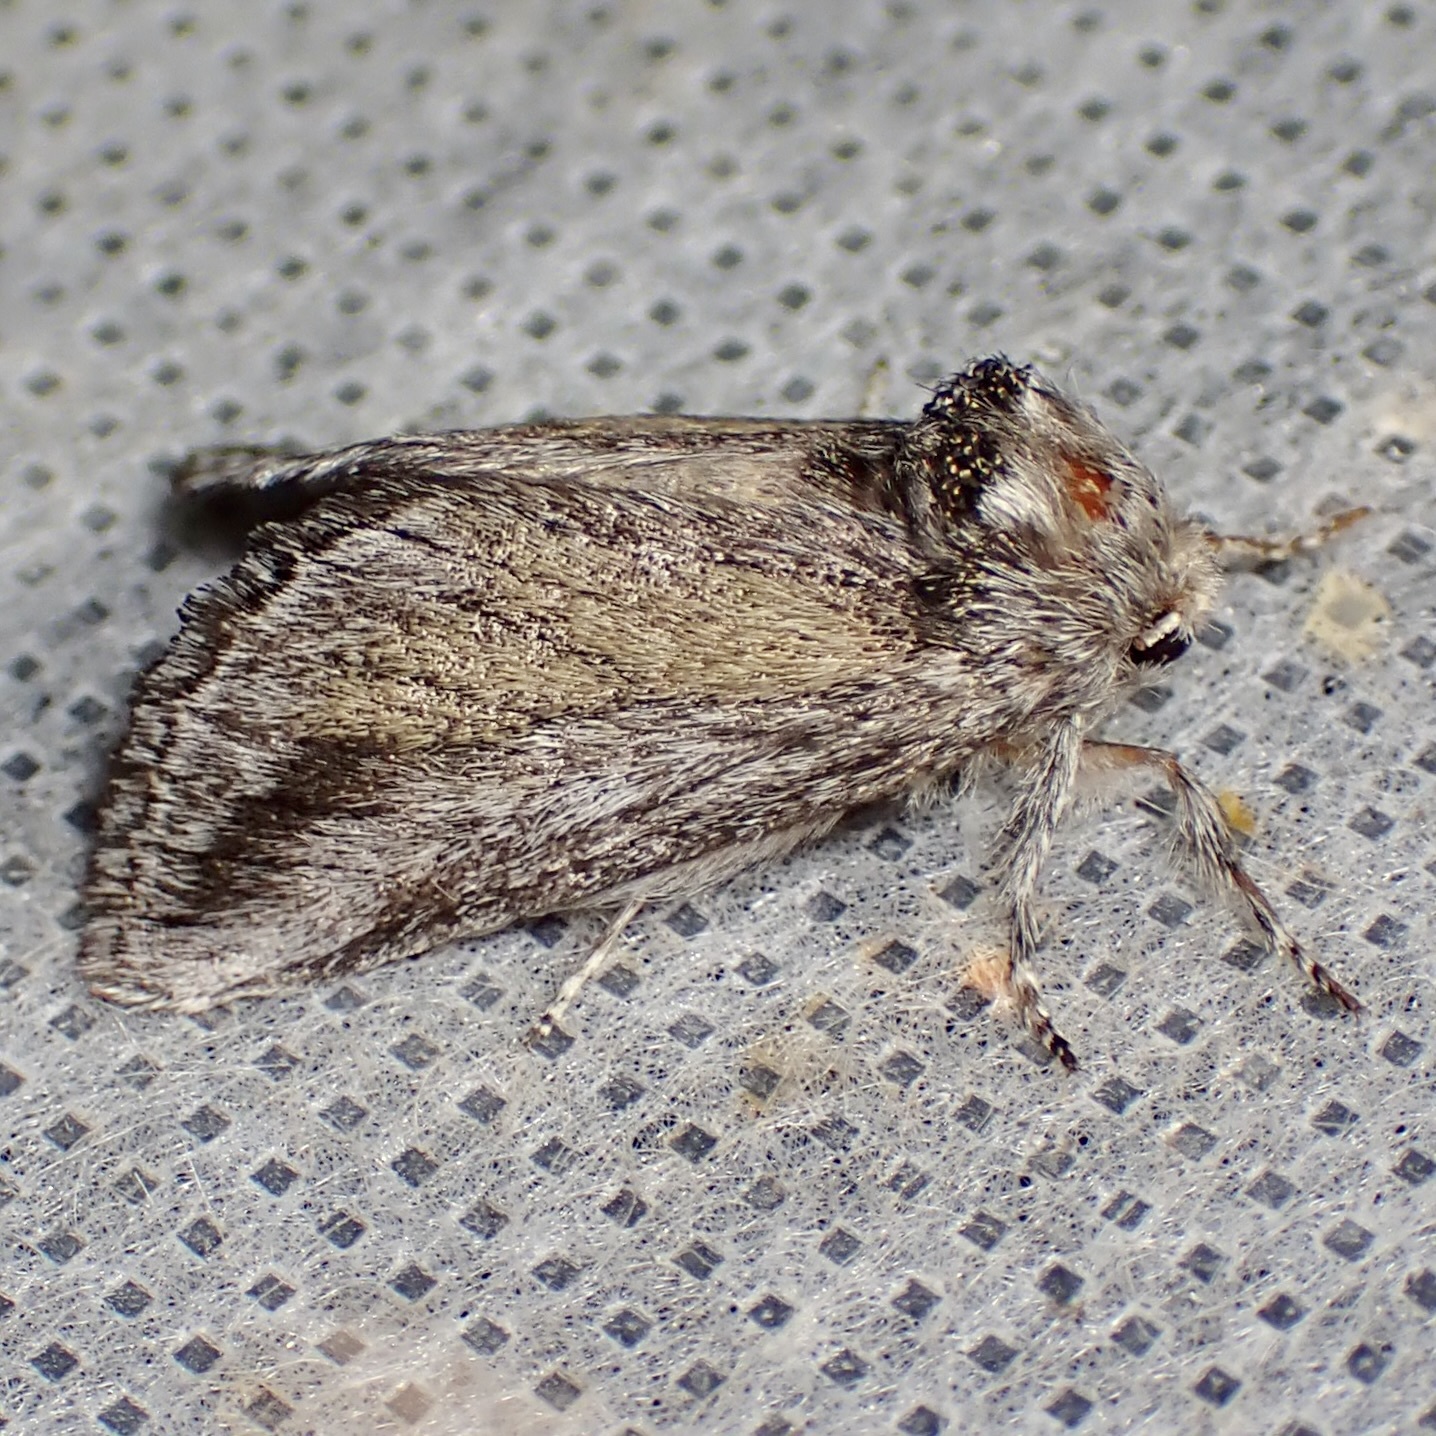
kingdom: Animalia
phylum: Arthropoda
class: Insecta
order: Lepidoptera
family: Notodontidae
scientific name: Notodontidae
